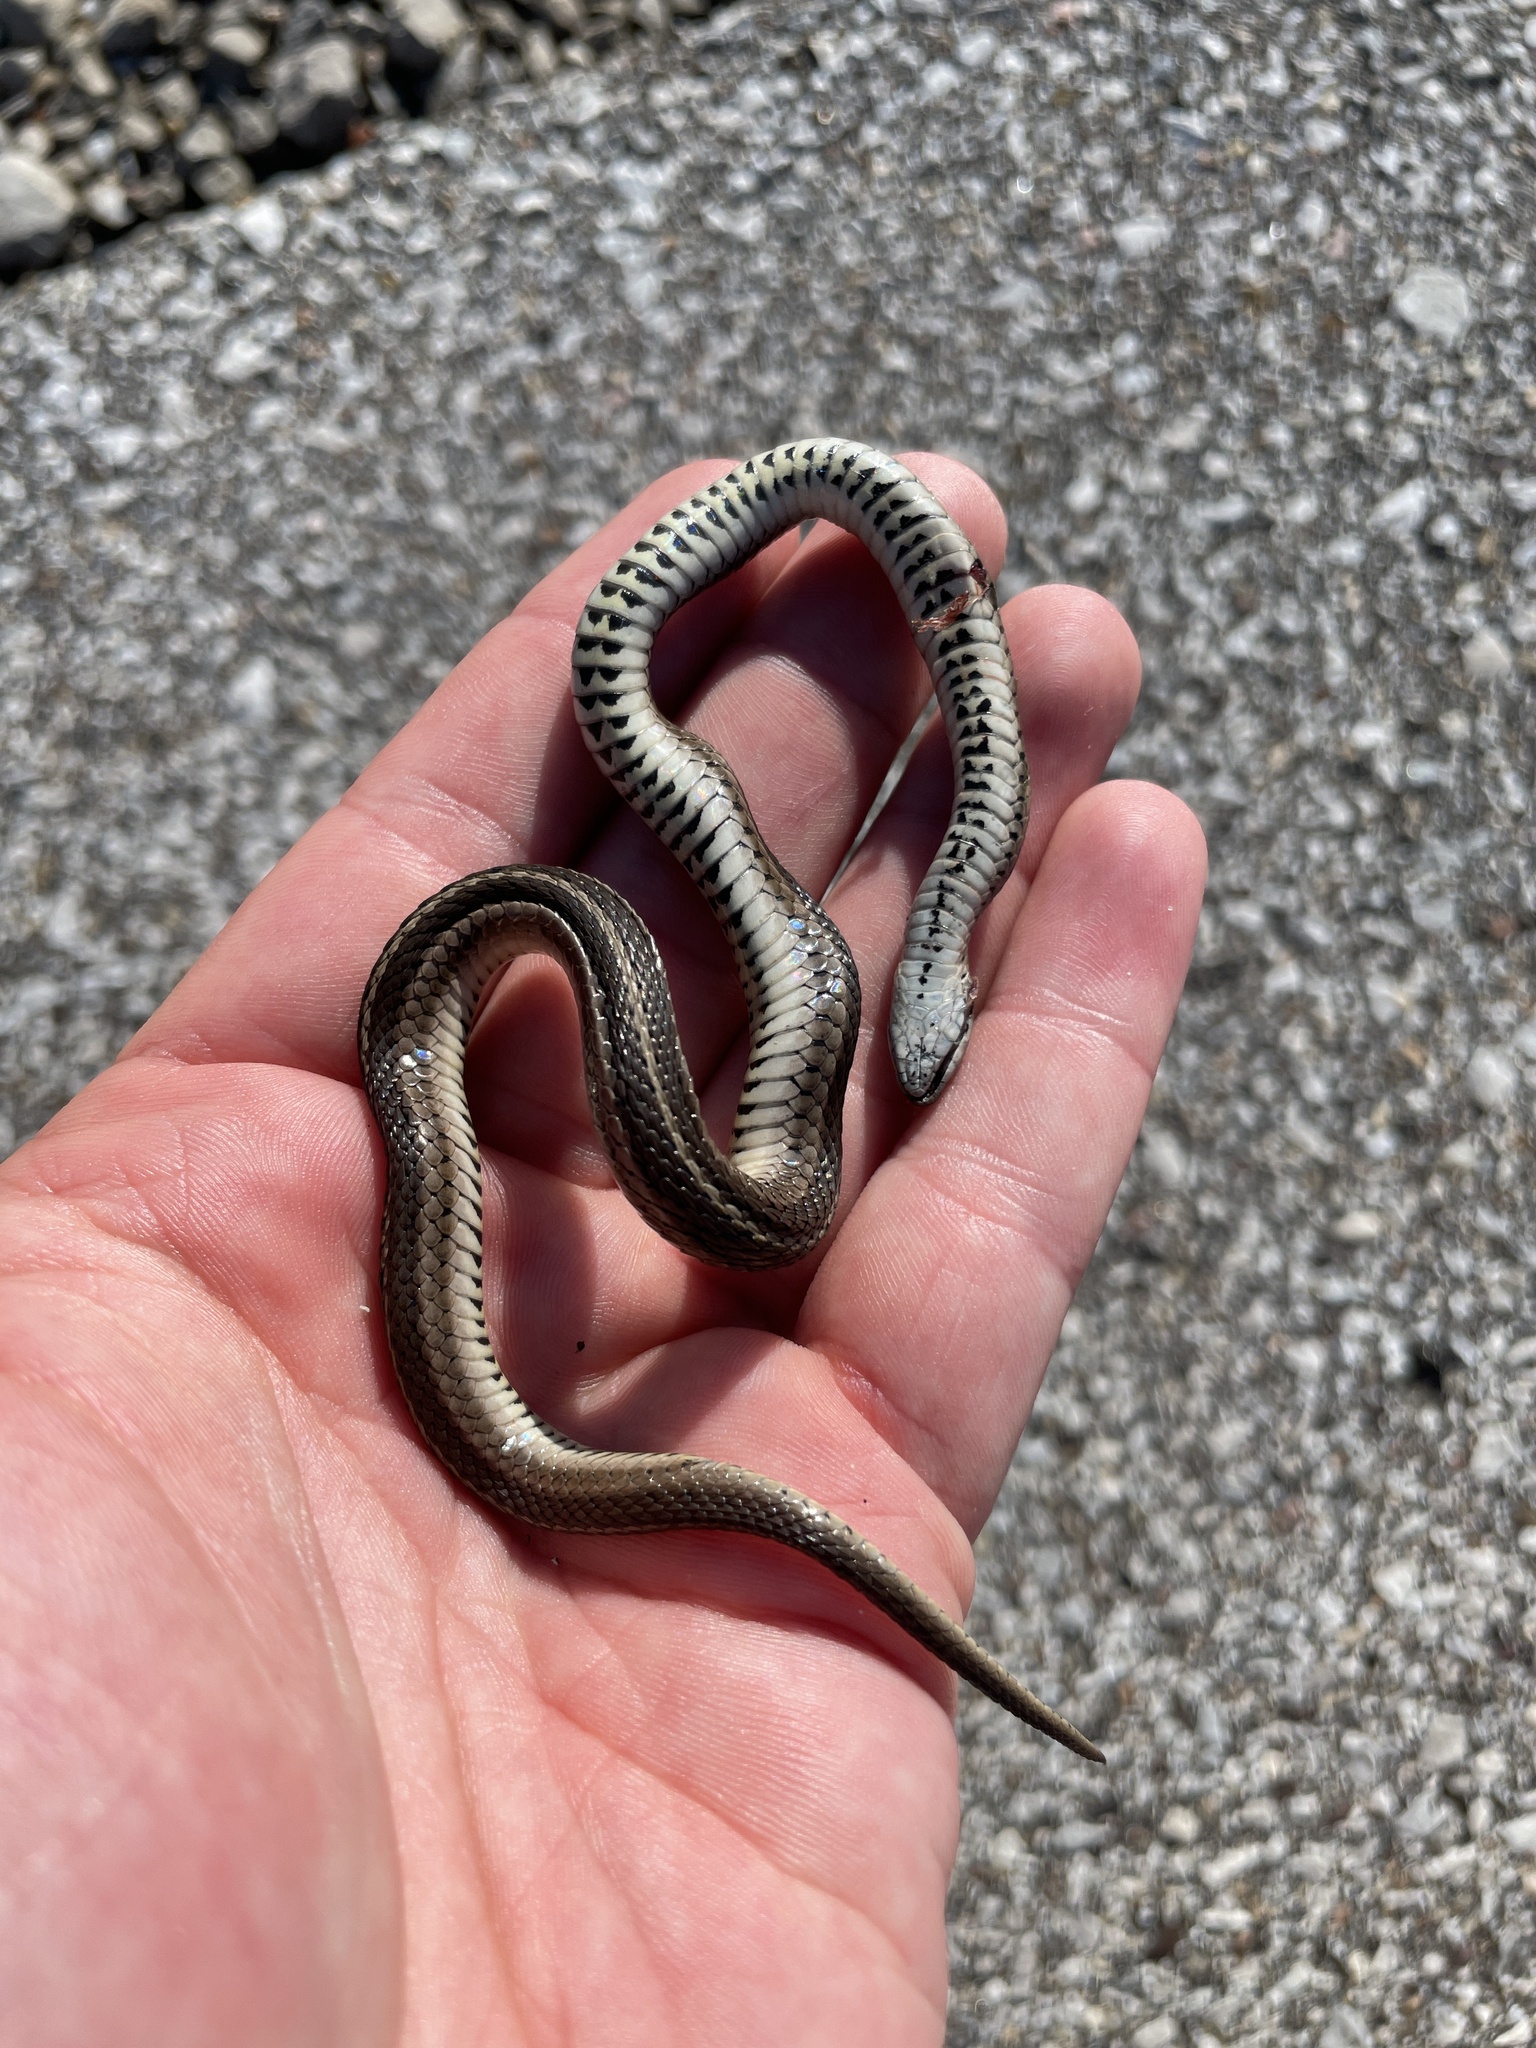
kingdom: Animalia
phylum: Chordata
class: Squamata
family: Colubridae
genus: Tropidoclonion
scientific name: Tropidoclonion lineatum
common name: Lined snake
